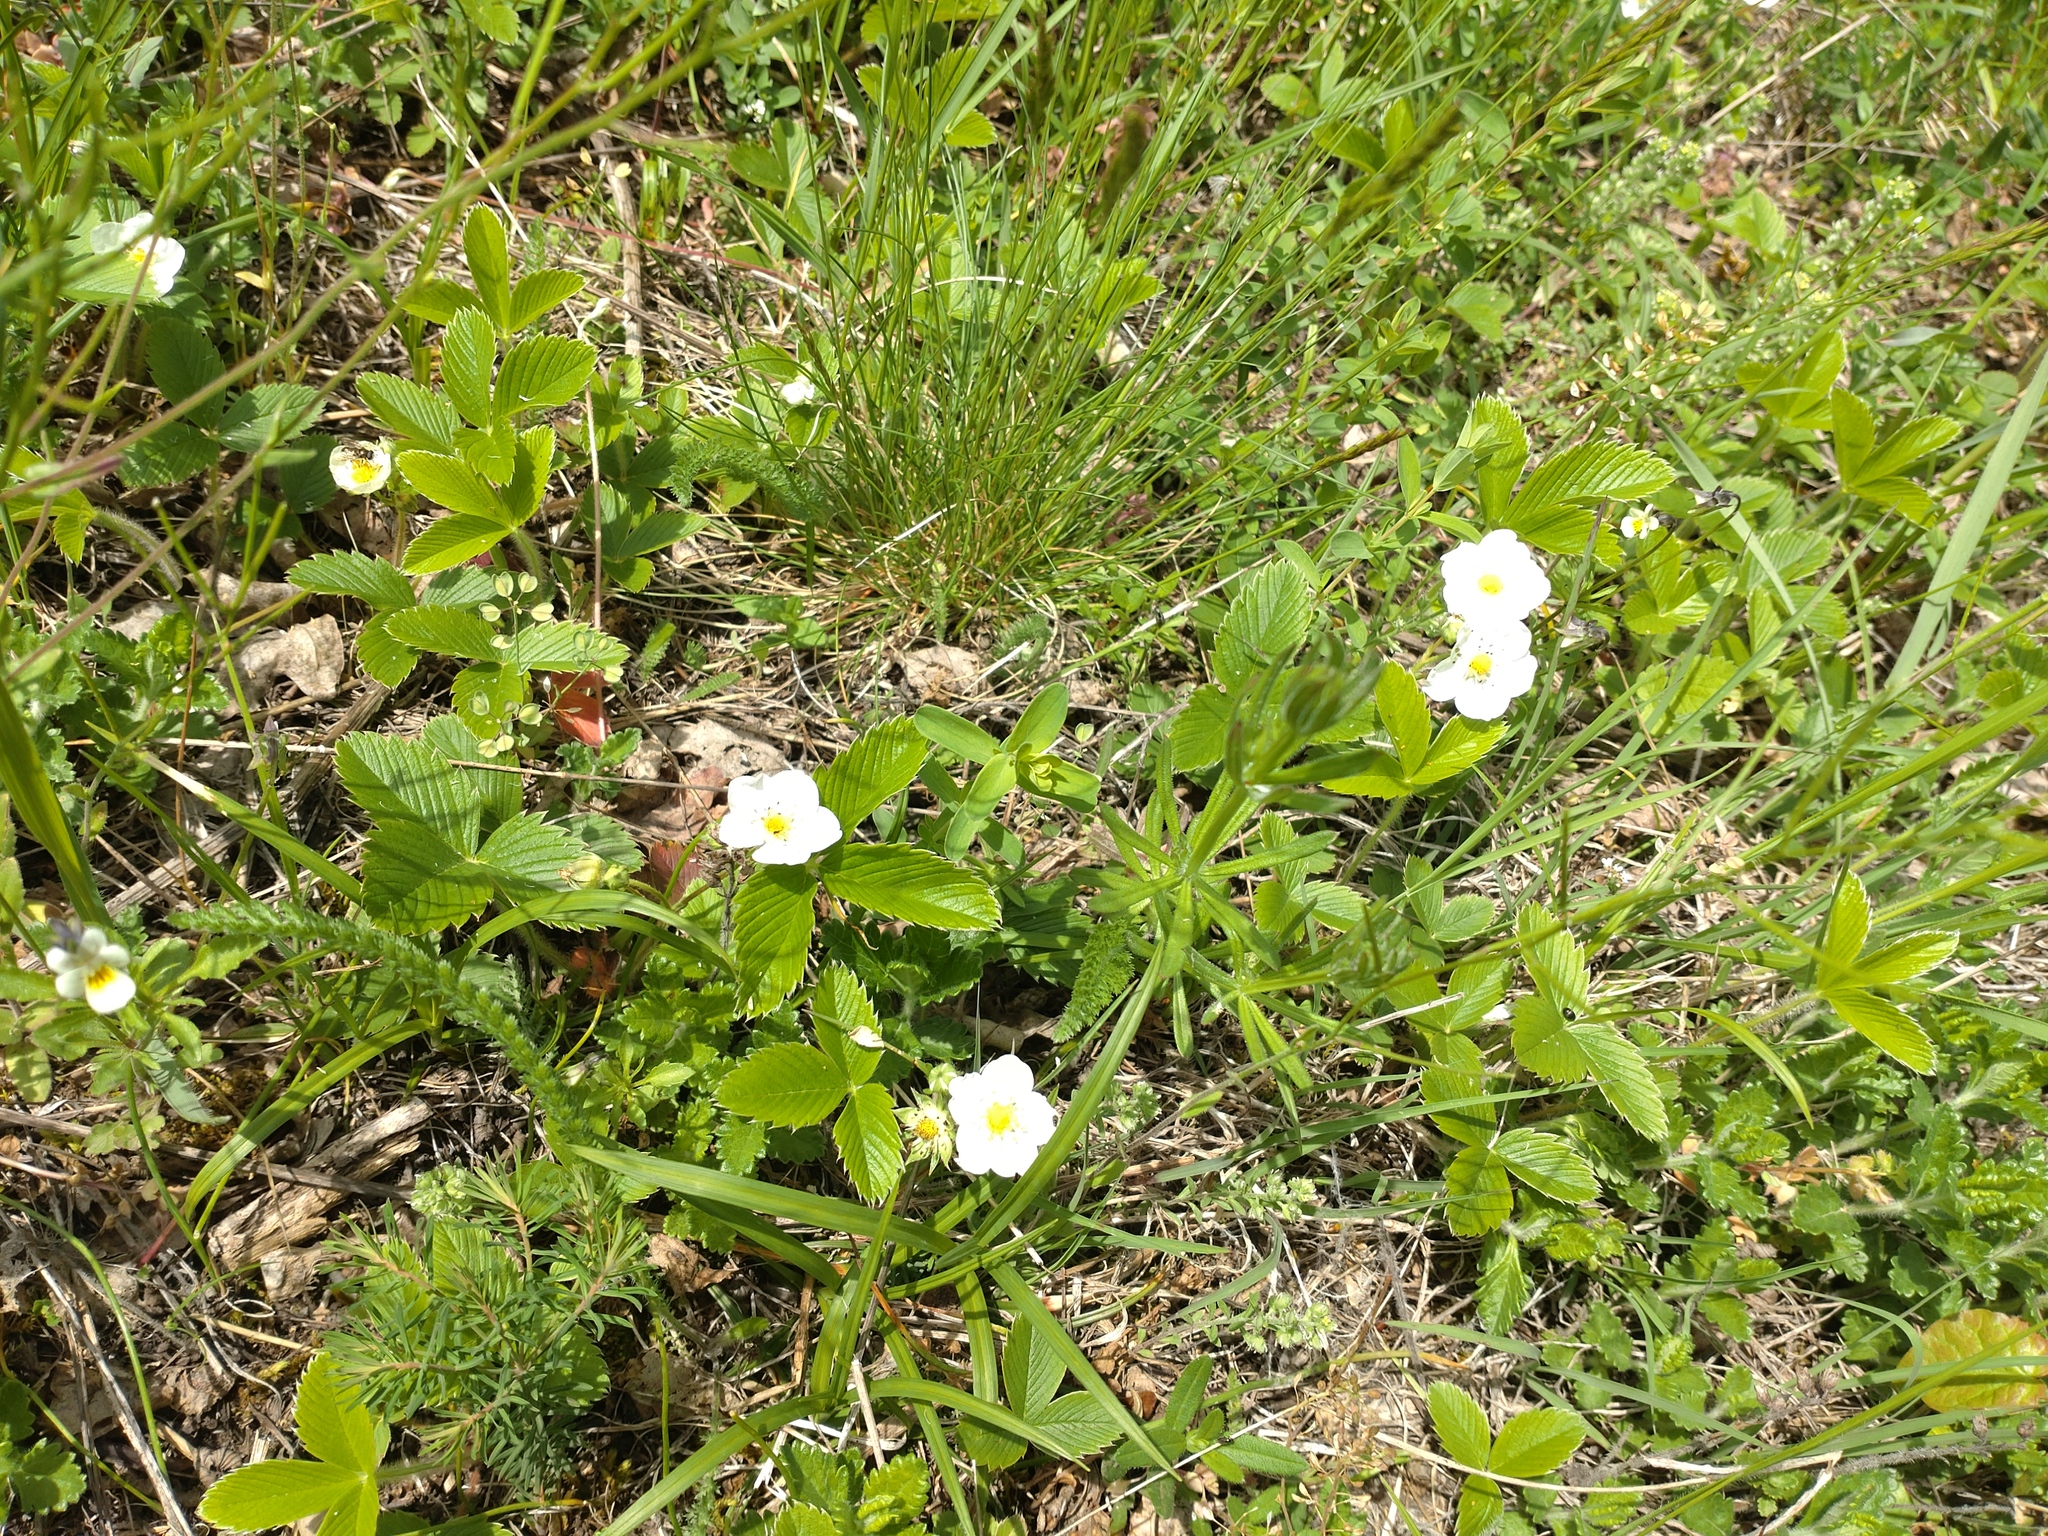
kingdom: Plantae
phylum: Tracheophyta
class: Magnoliopsida
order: Rosales
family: Rosaceae
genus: Fragaria
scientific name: Fragaria viridis
